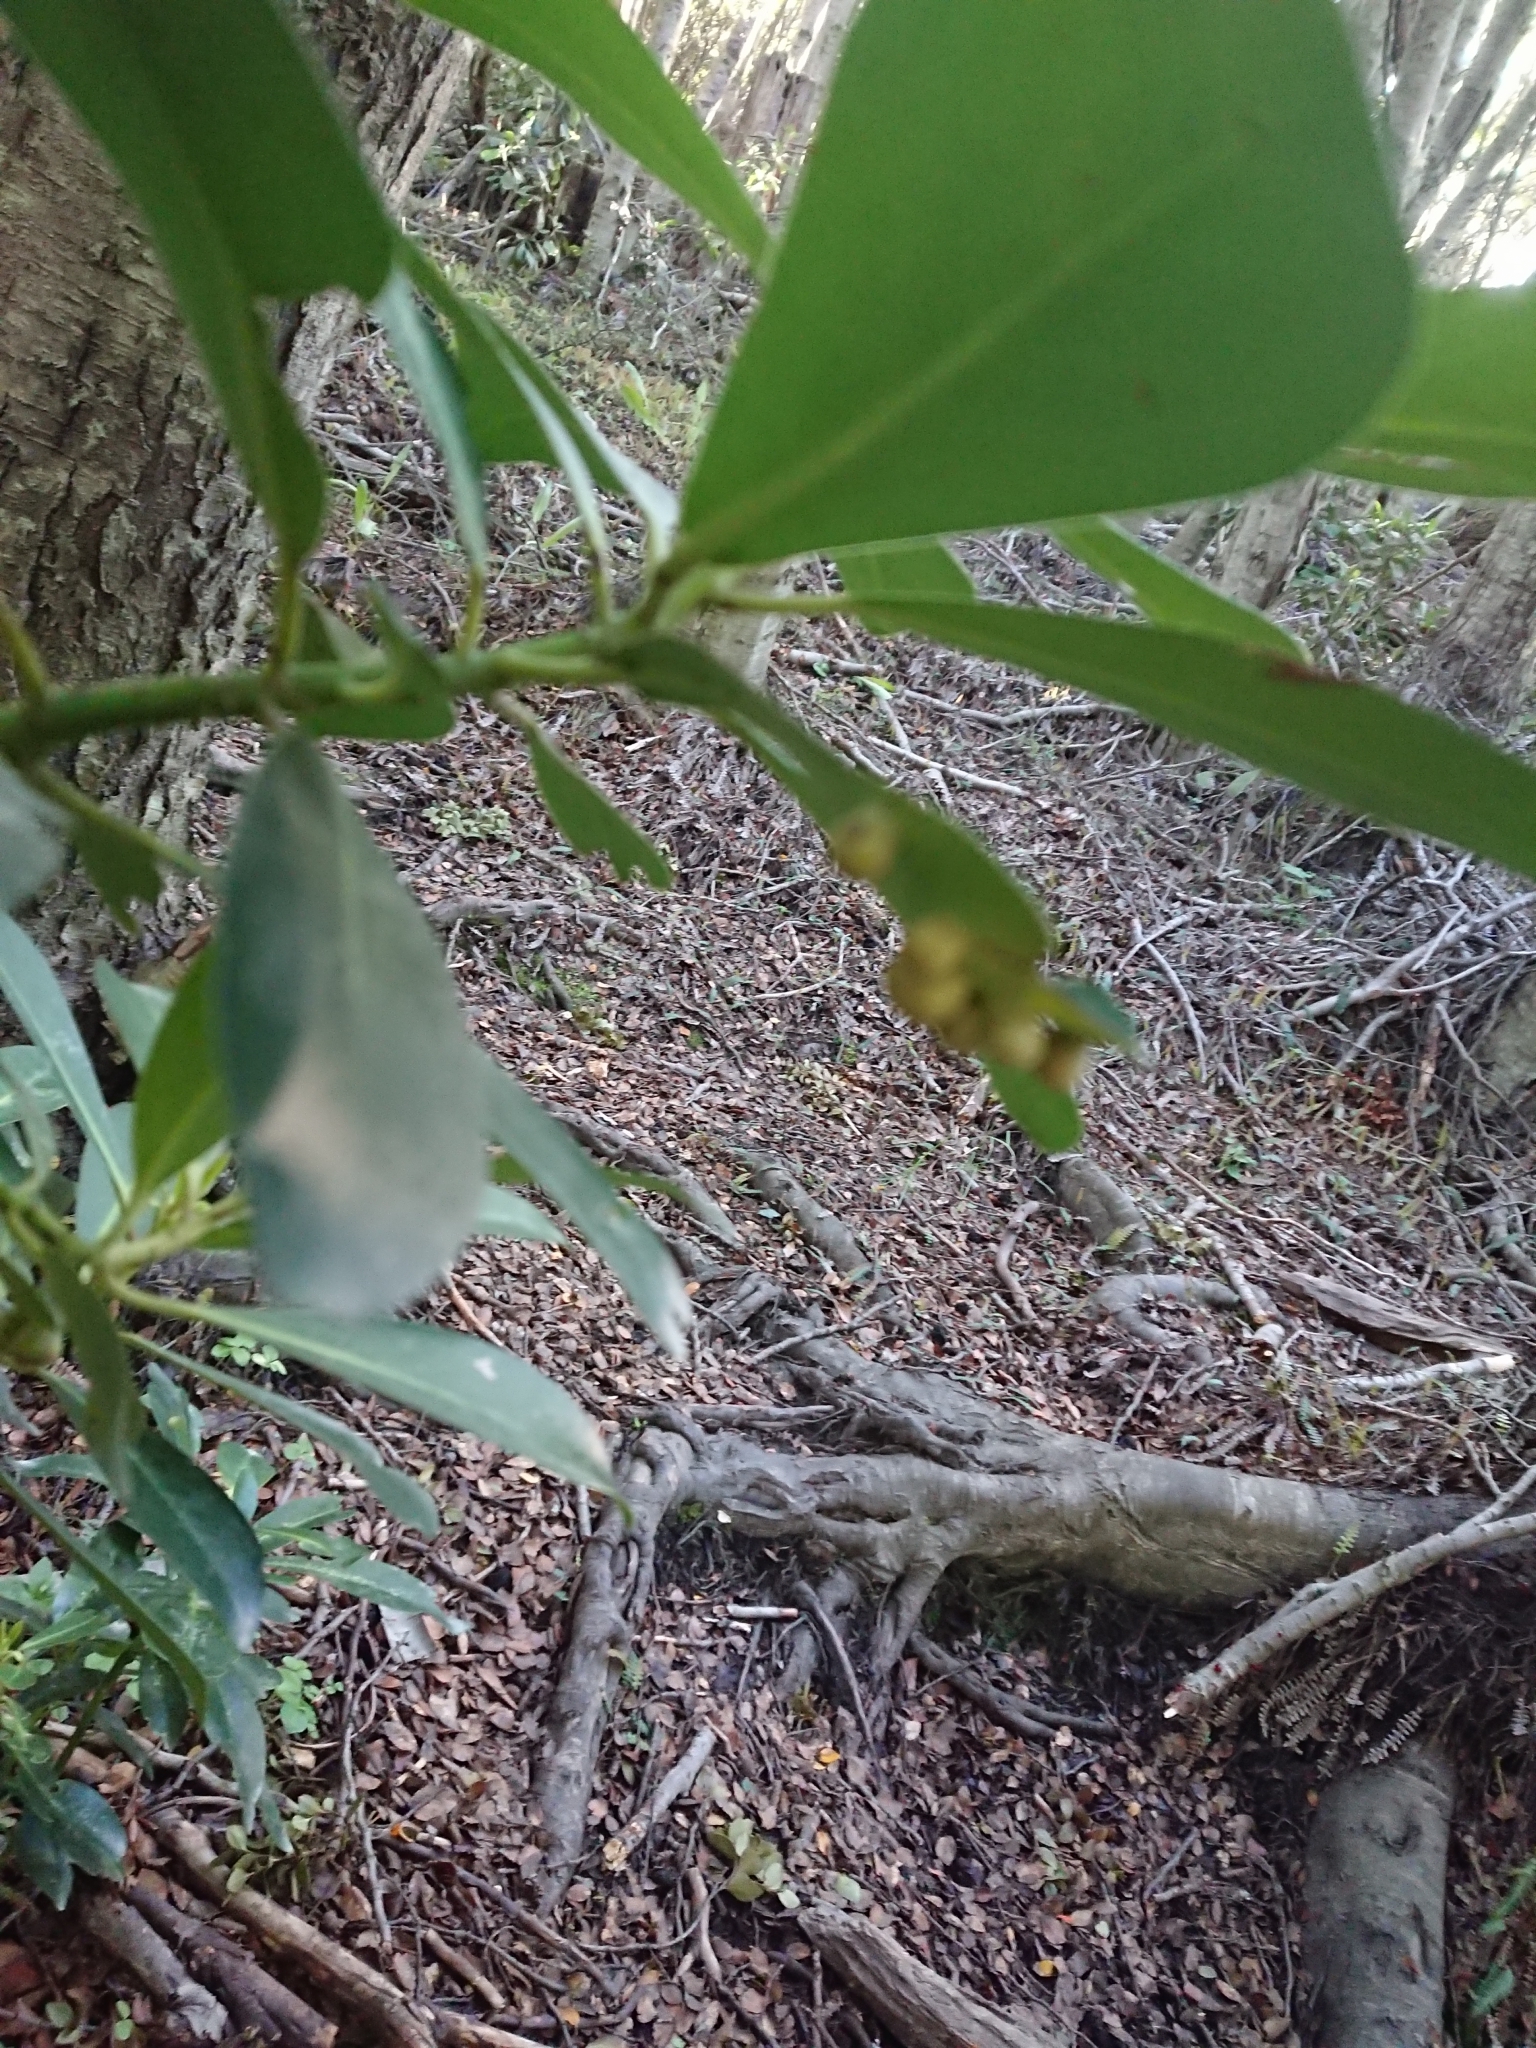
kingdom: Plantae
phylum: Tracheophyta
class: Magnoliopsida
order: Canellales
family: Winteraceae
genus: Drimys
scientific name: Drimys winteri
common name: Winter's-bark
